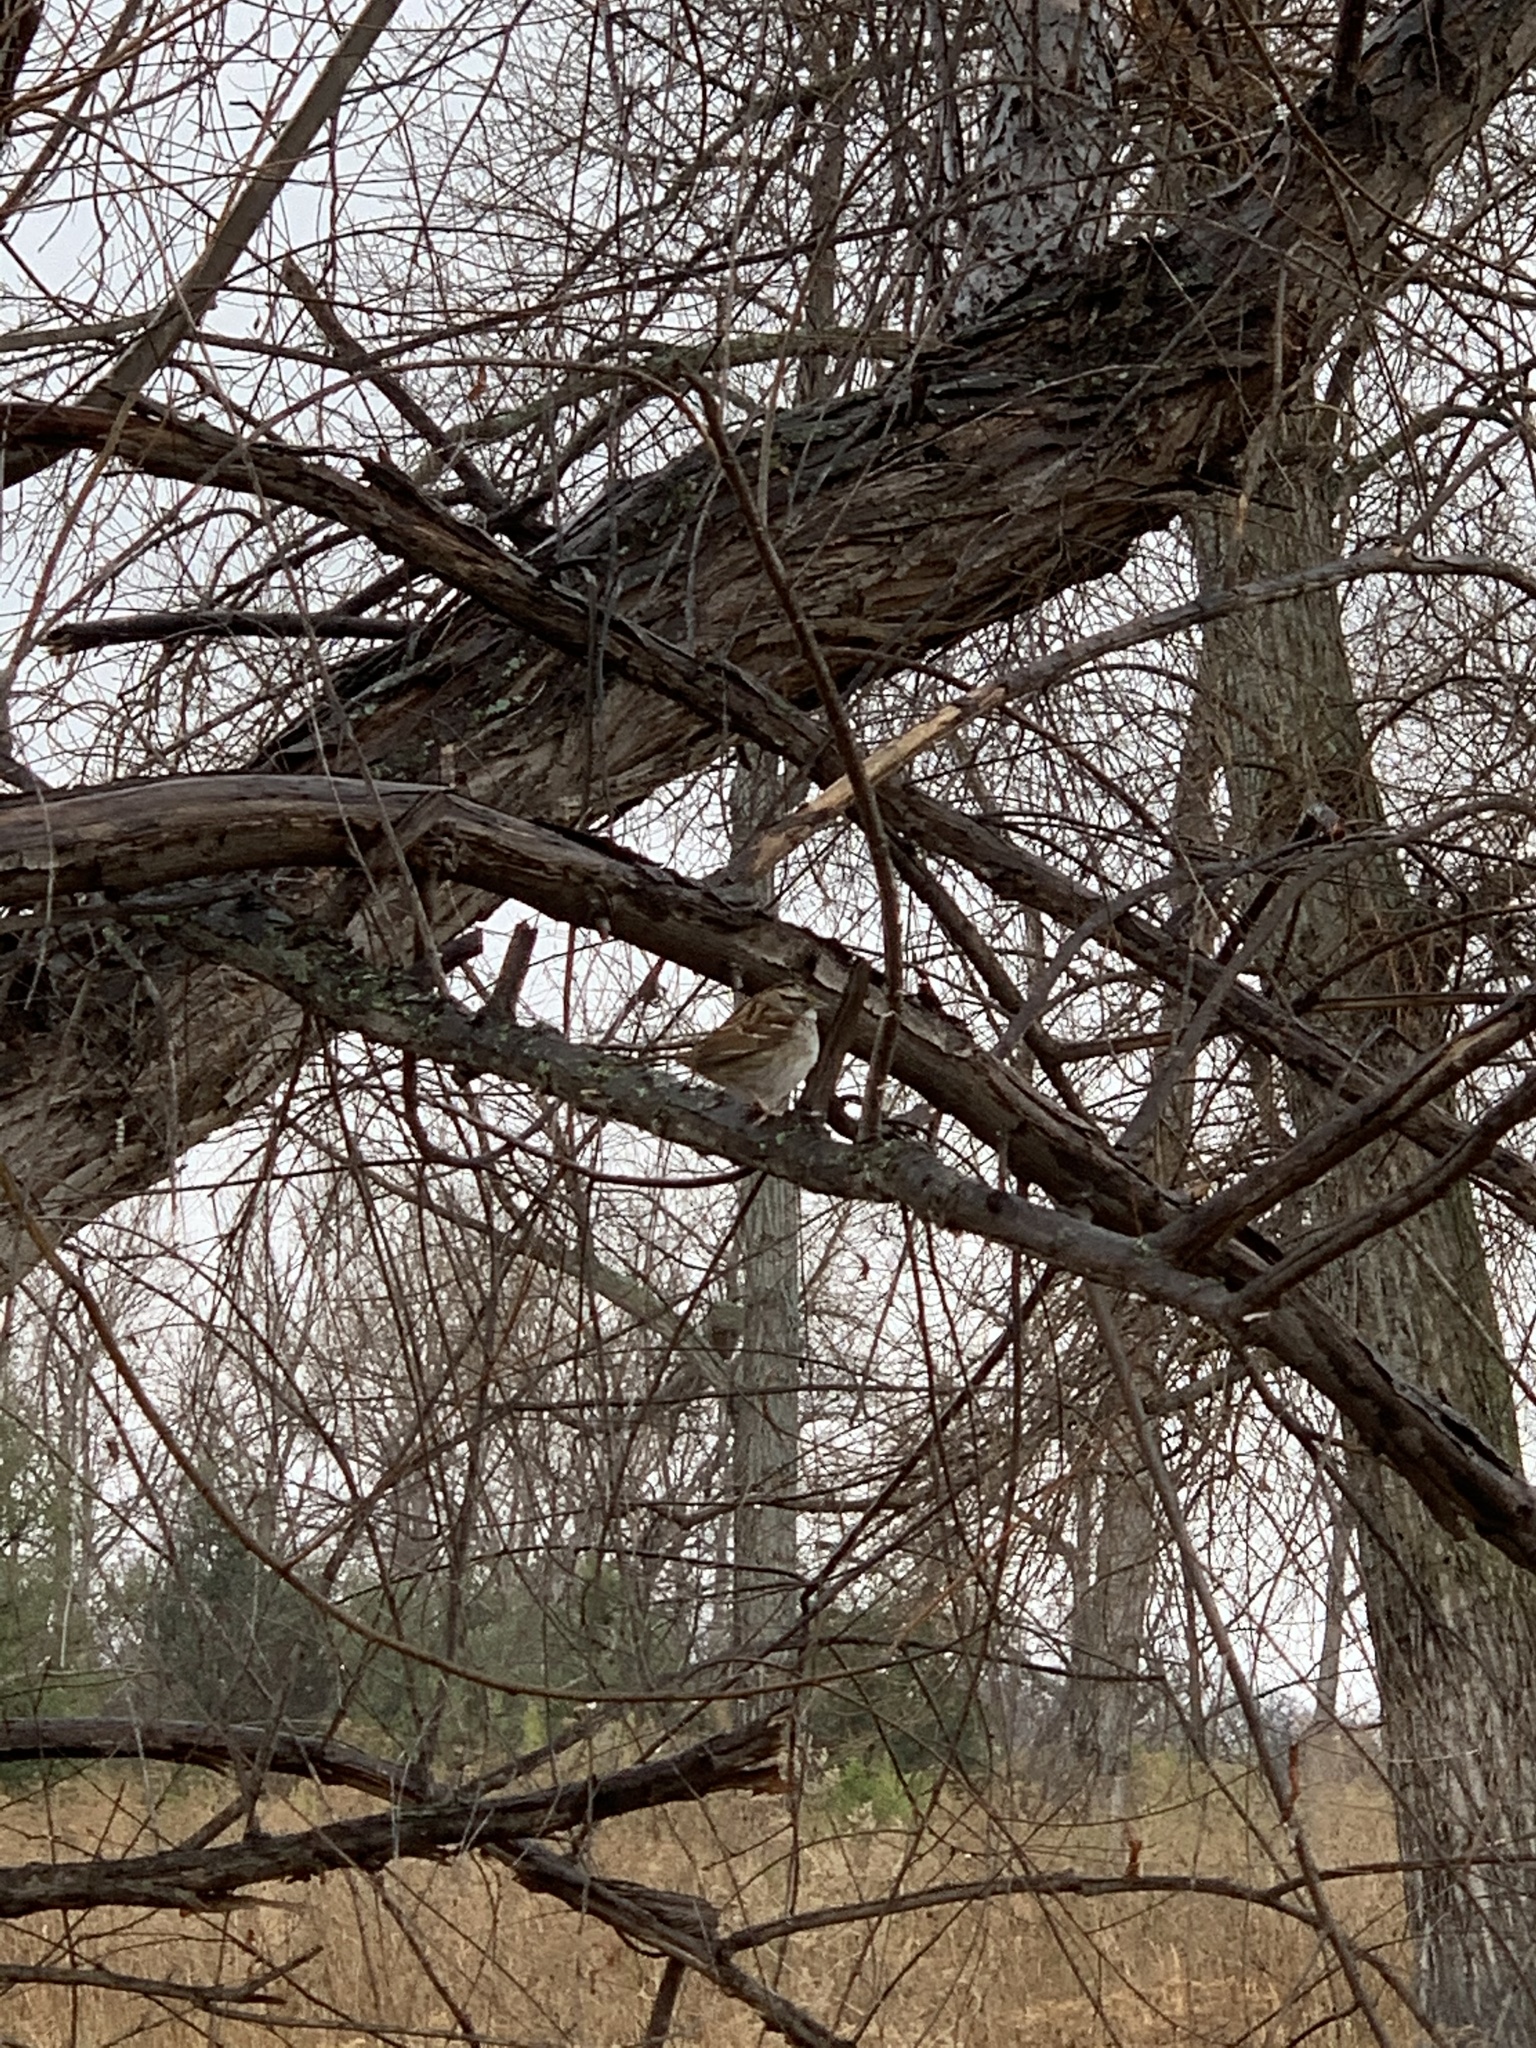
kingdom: Animalia
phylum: Chordata
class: Aves
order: Passeriformes
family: Passerellidae
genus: Zonotrichia
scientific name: Zonotrichia albicollis
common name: White-throated sparrow
